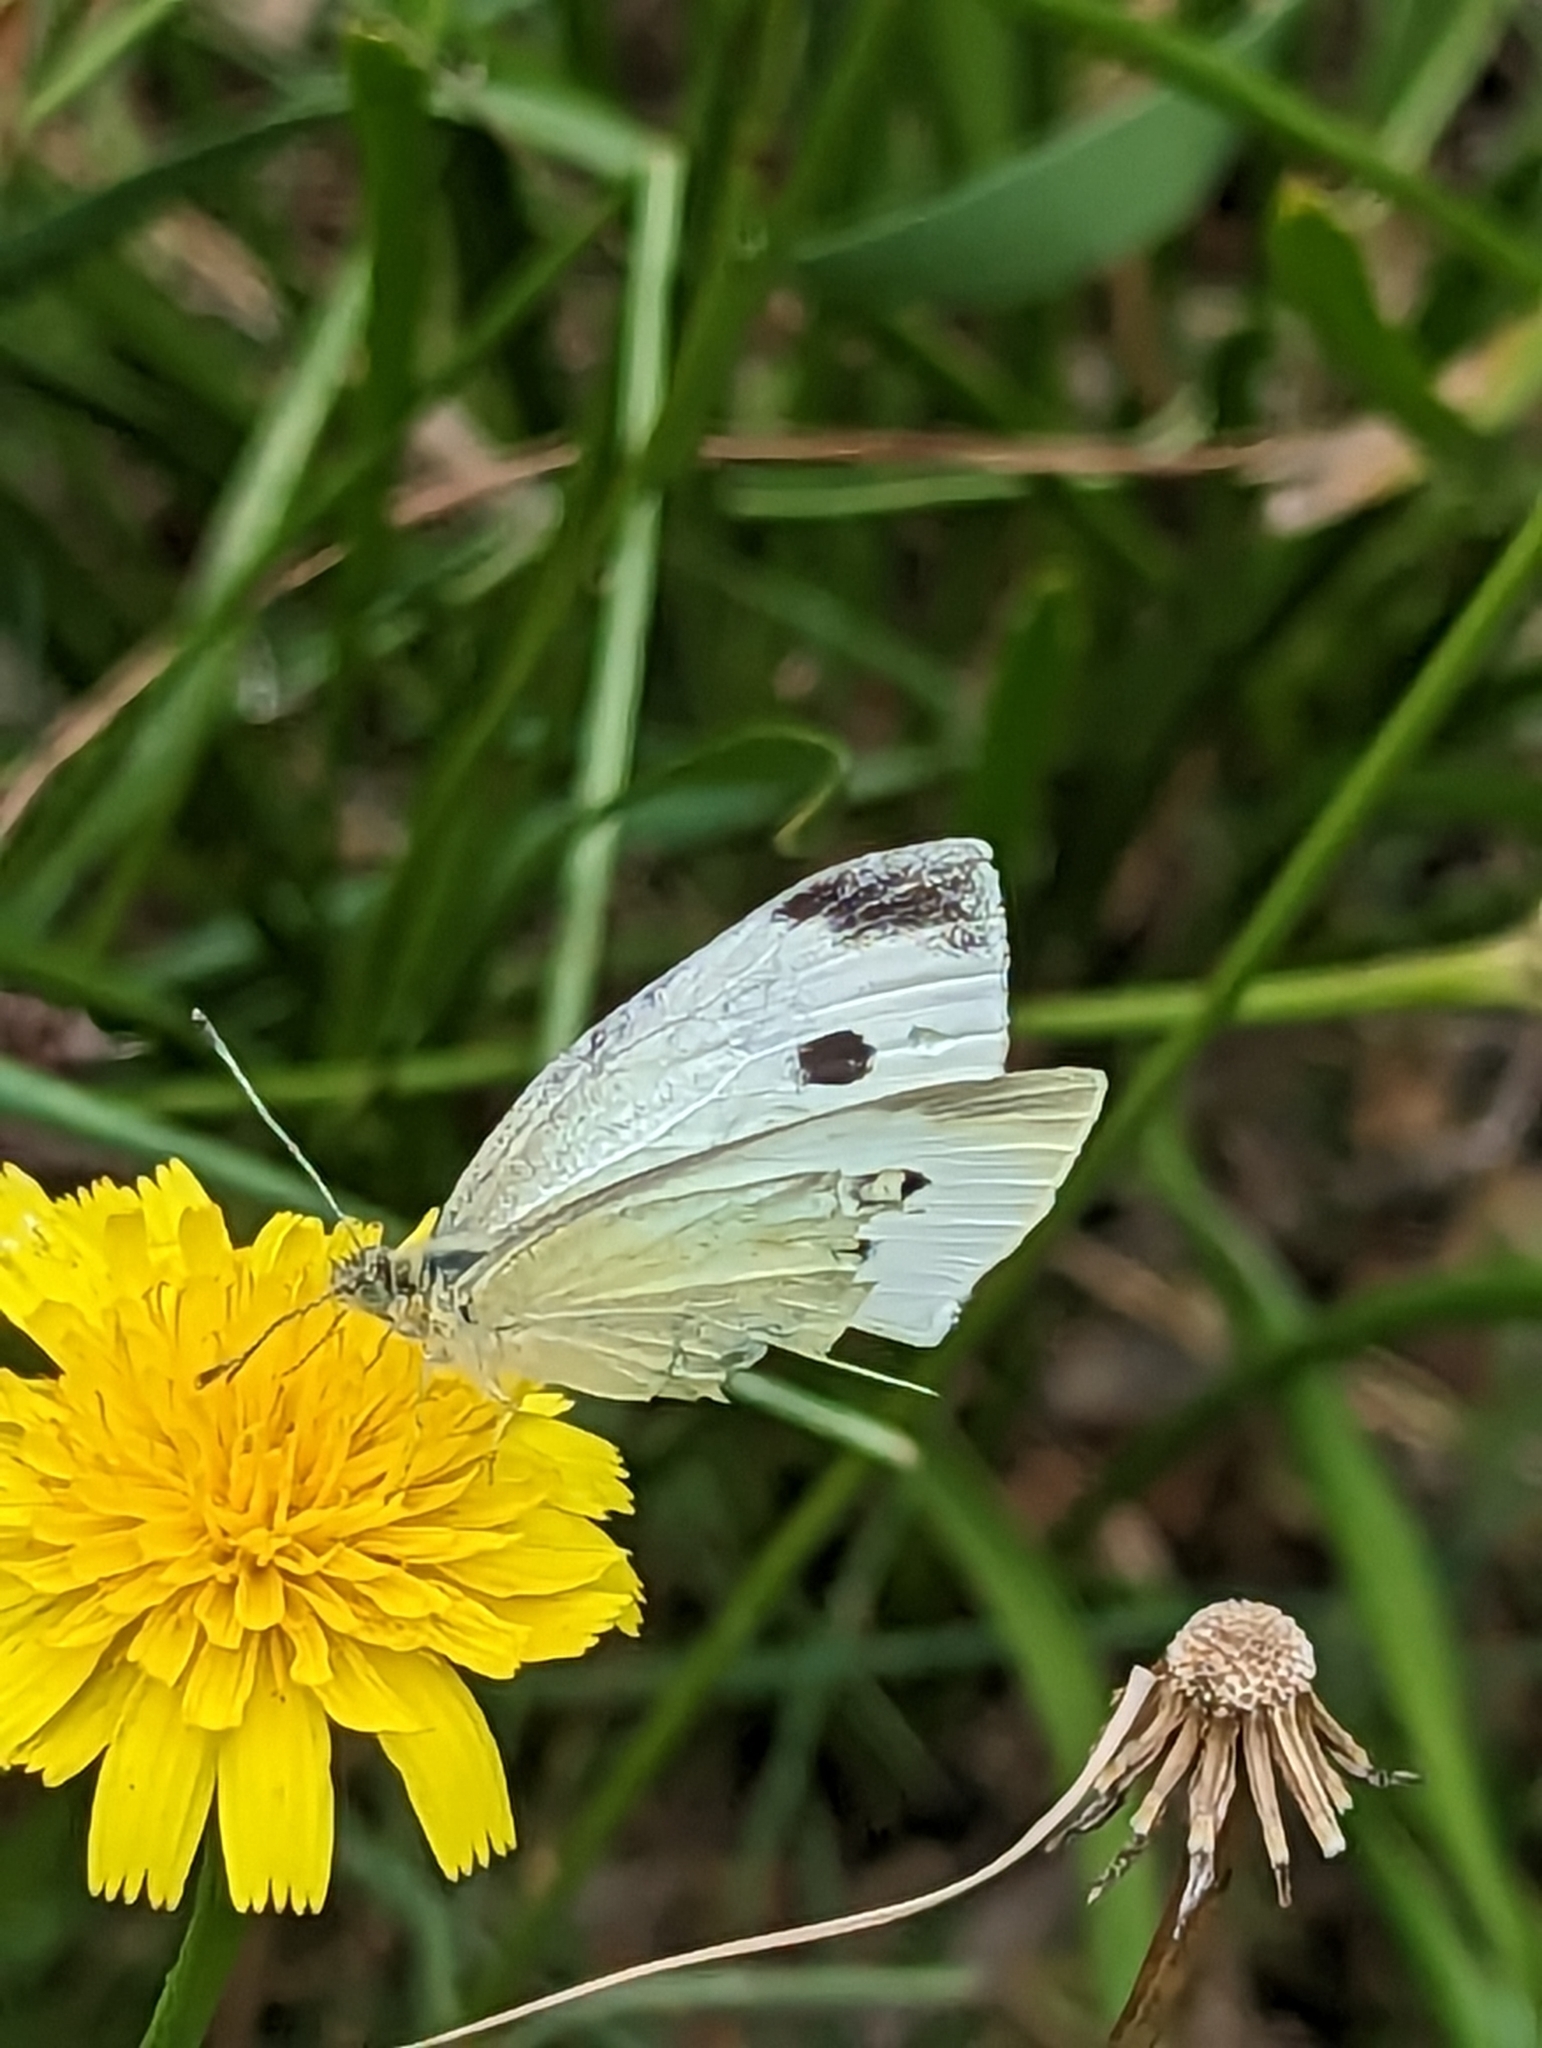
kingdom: Animalia
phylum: Arthropoda
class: Insecta
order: Lepidoptera
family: Pieridae
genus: Pieris
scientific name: Pieris rapae
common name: Small white
